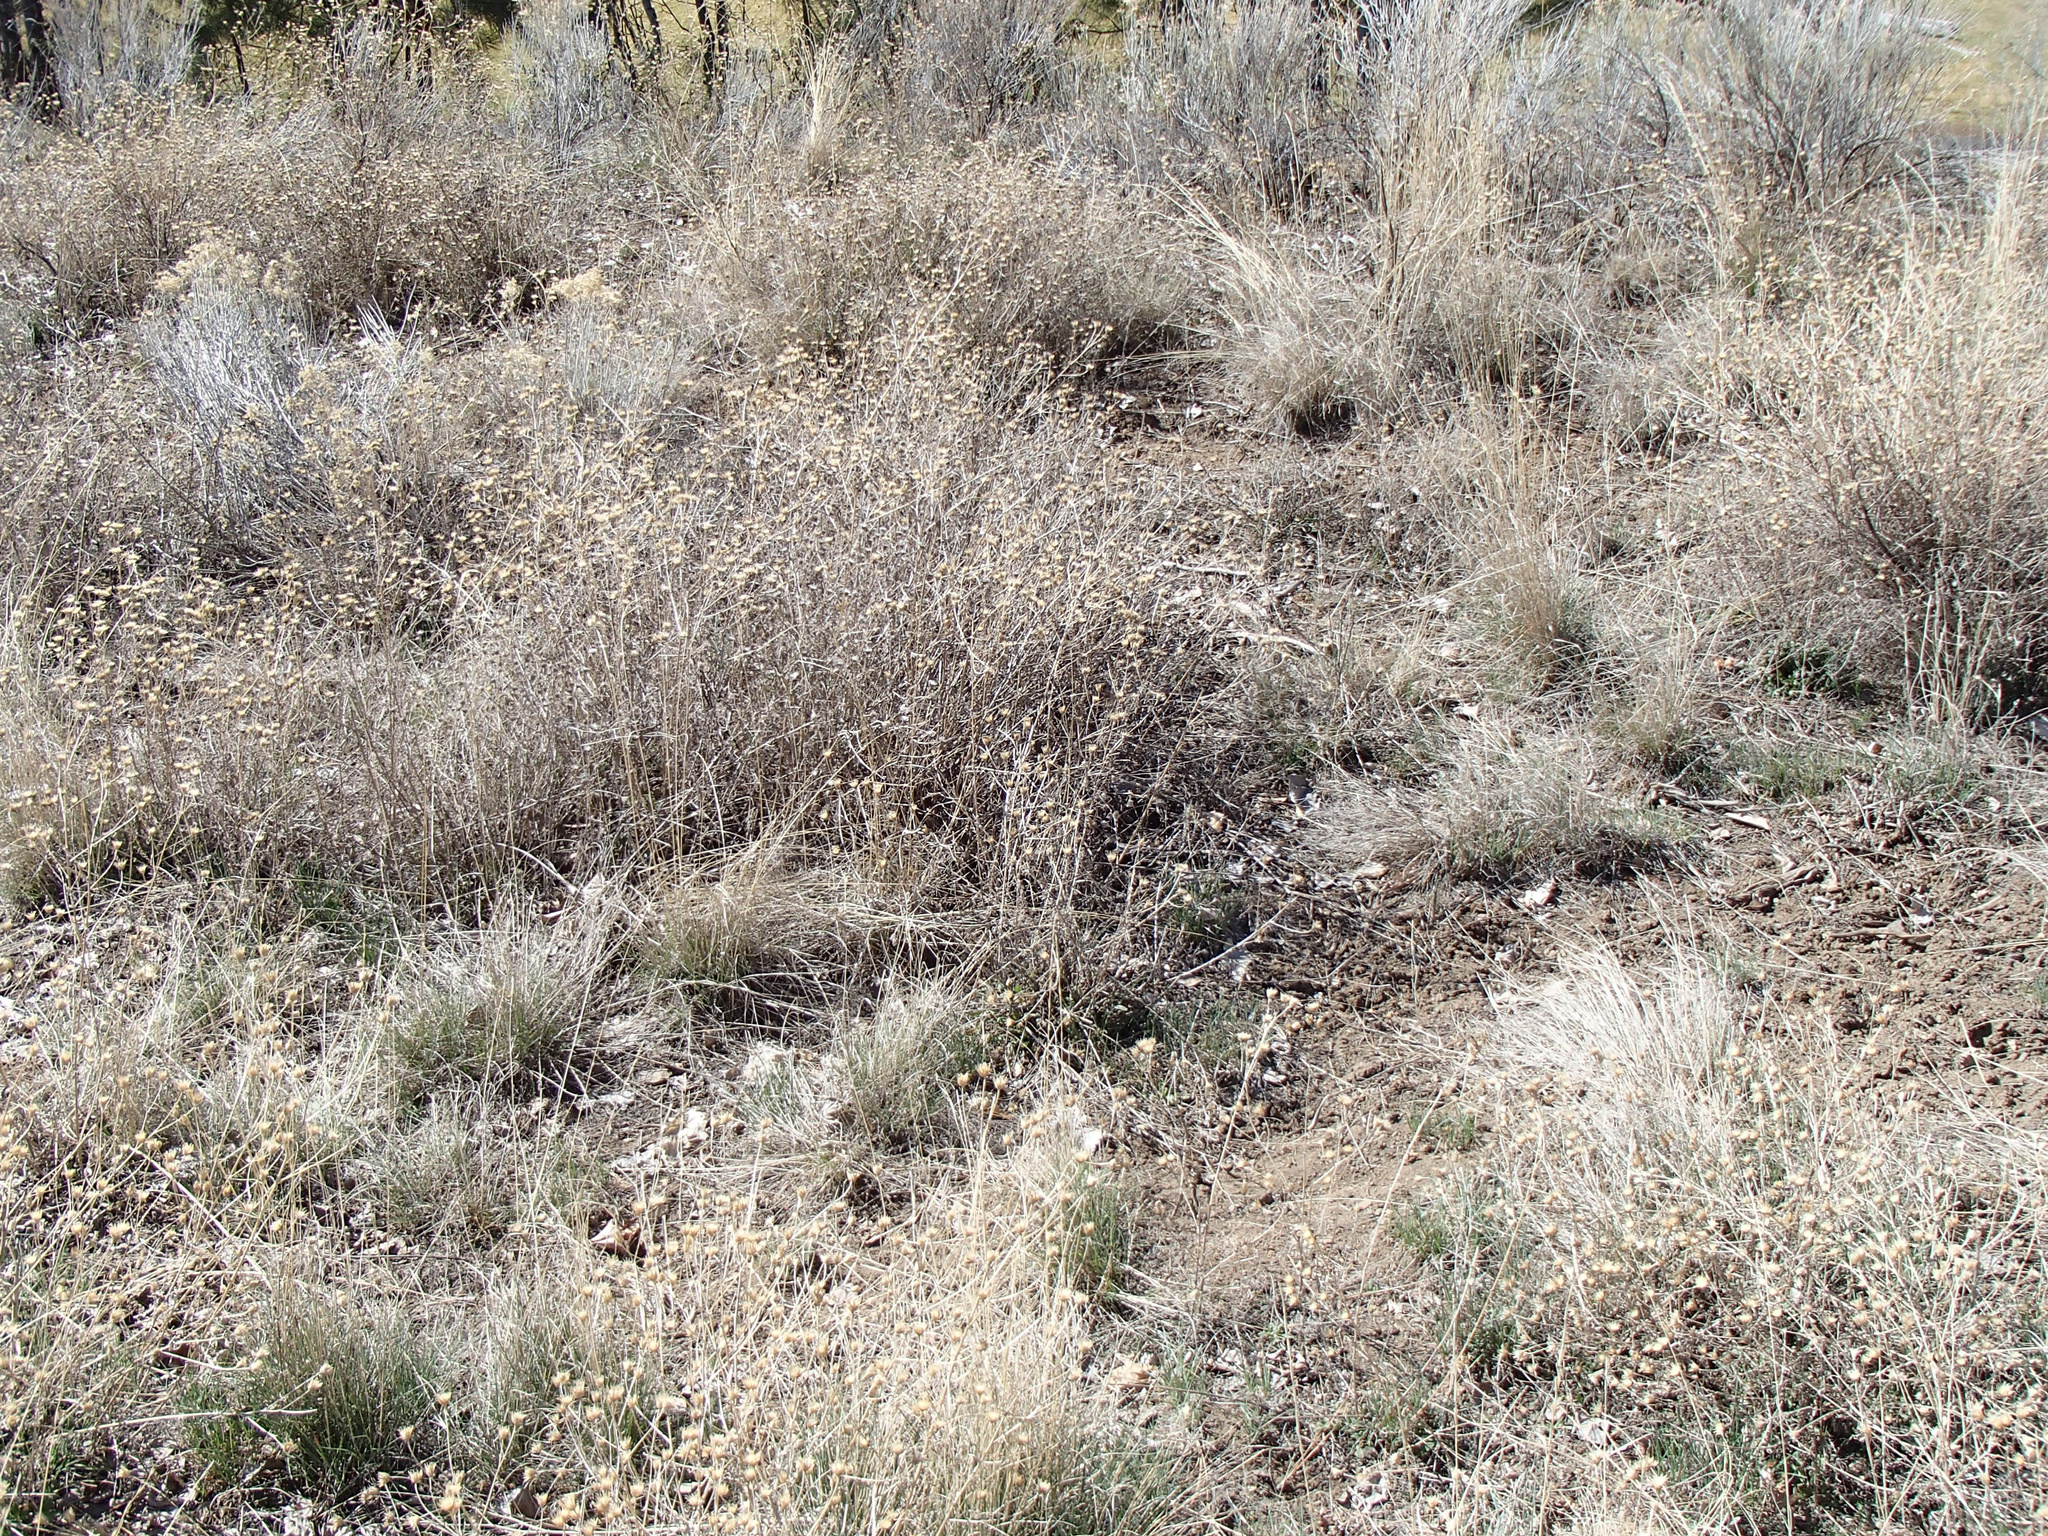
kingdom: Plantae
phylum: Tracheophyta
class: Magnoliopsida
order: Asterales
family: Asteraceae
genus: Centaurea
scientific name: Centaurea stoebe
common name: Spotted knapweed
